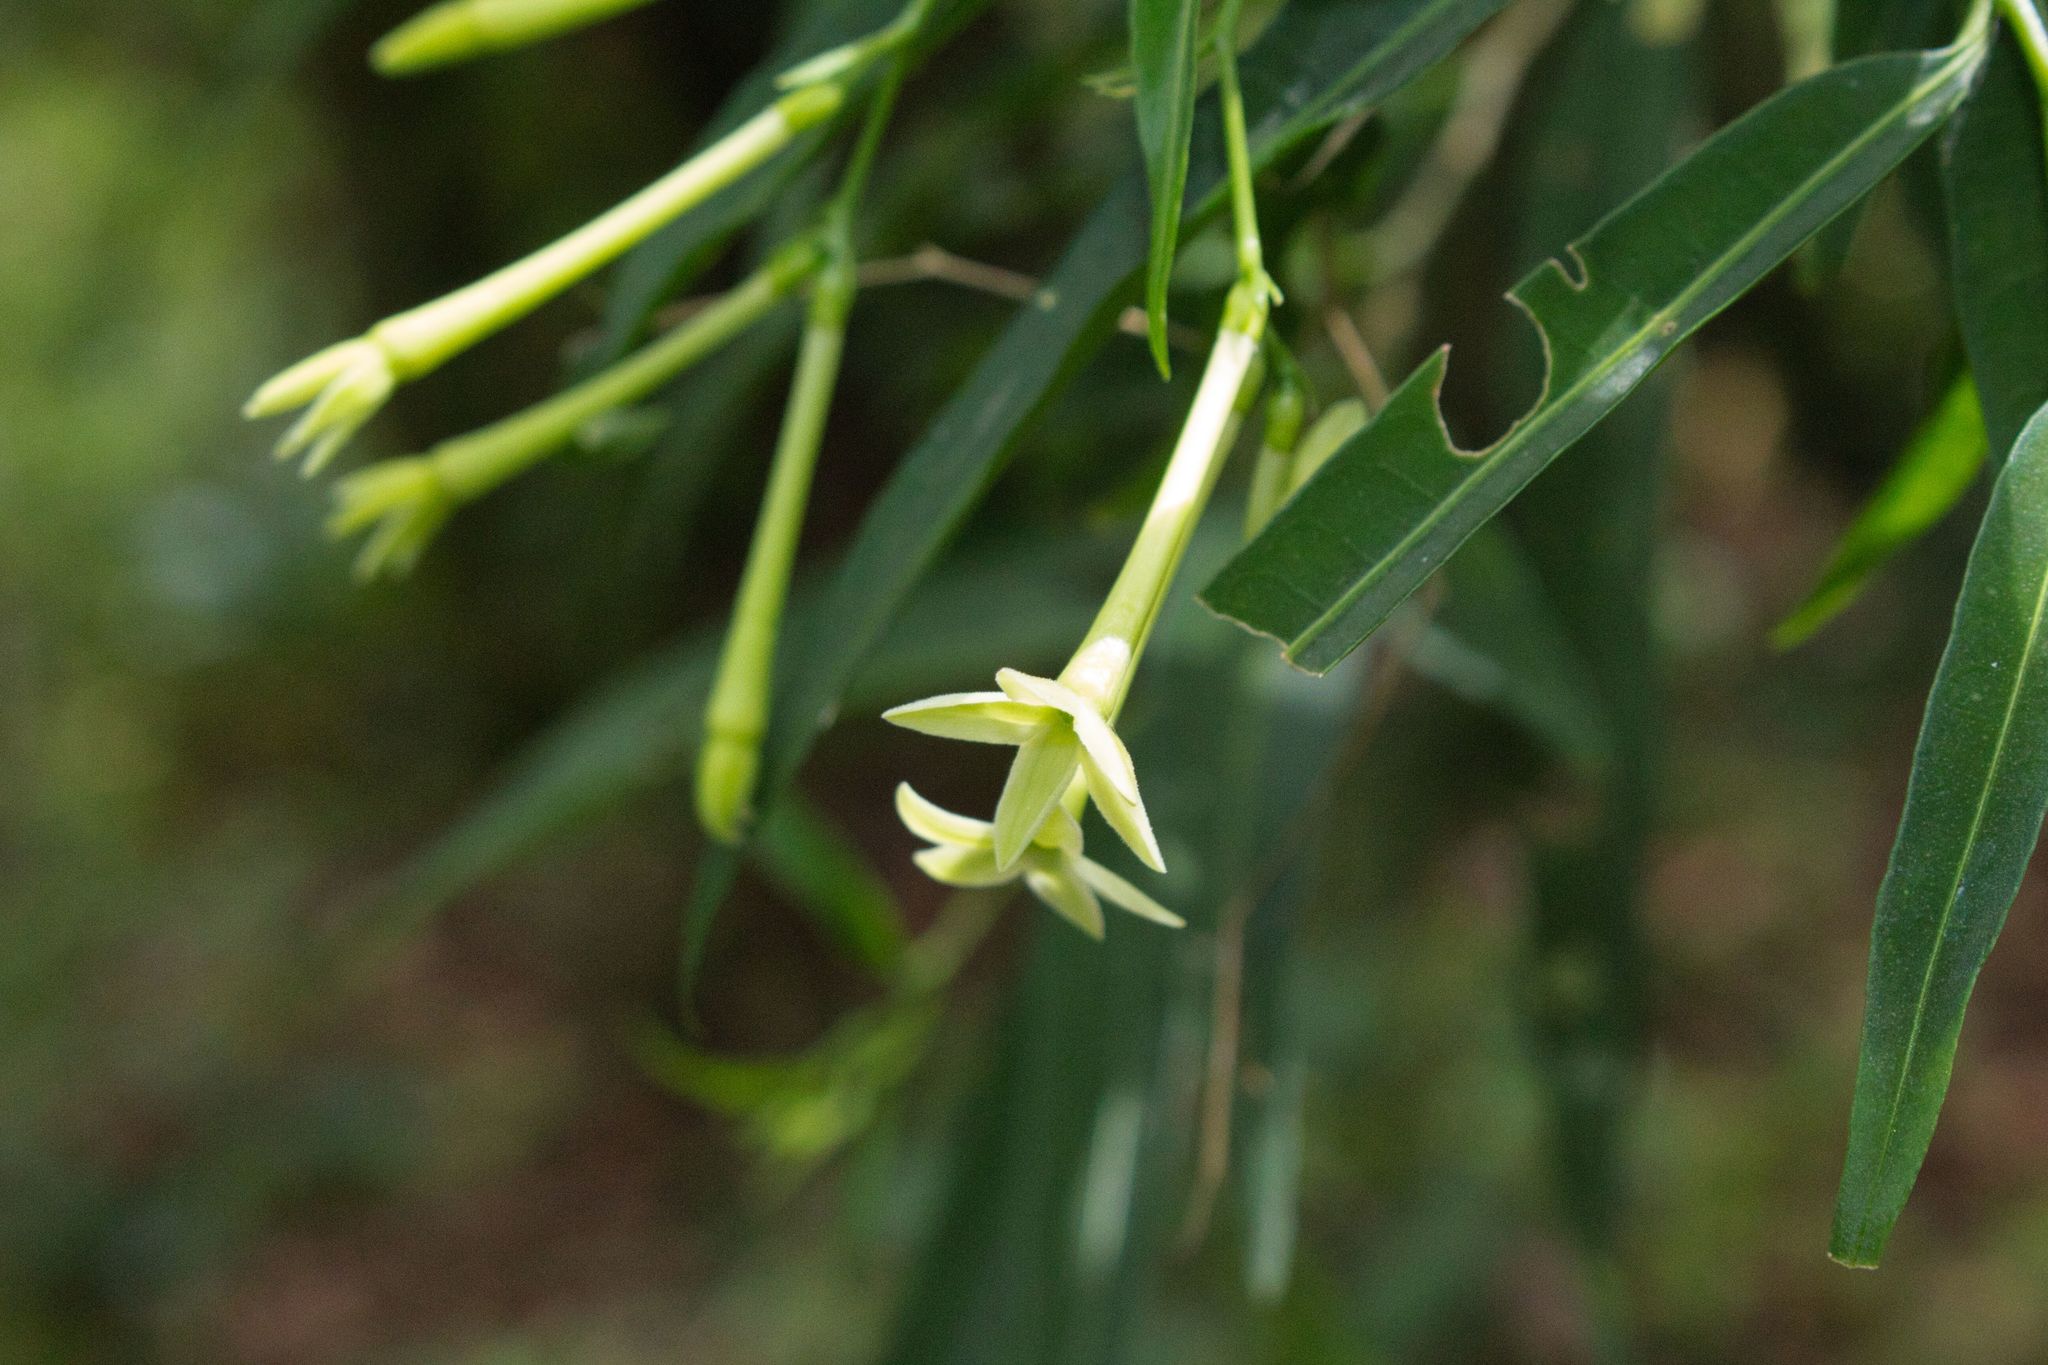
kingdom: Plantae
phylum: Tracheophyta
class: Magnoliopsida
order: Solanales
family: Solanaceae
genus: Cestrum
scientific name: Cestrum cristinae
